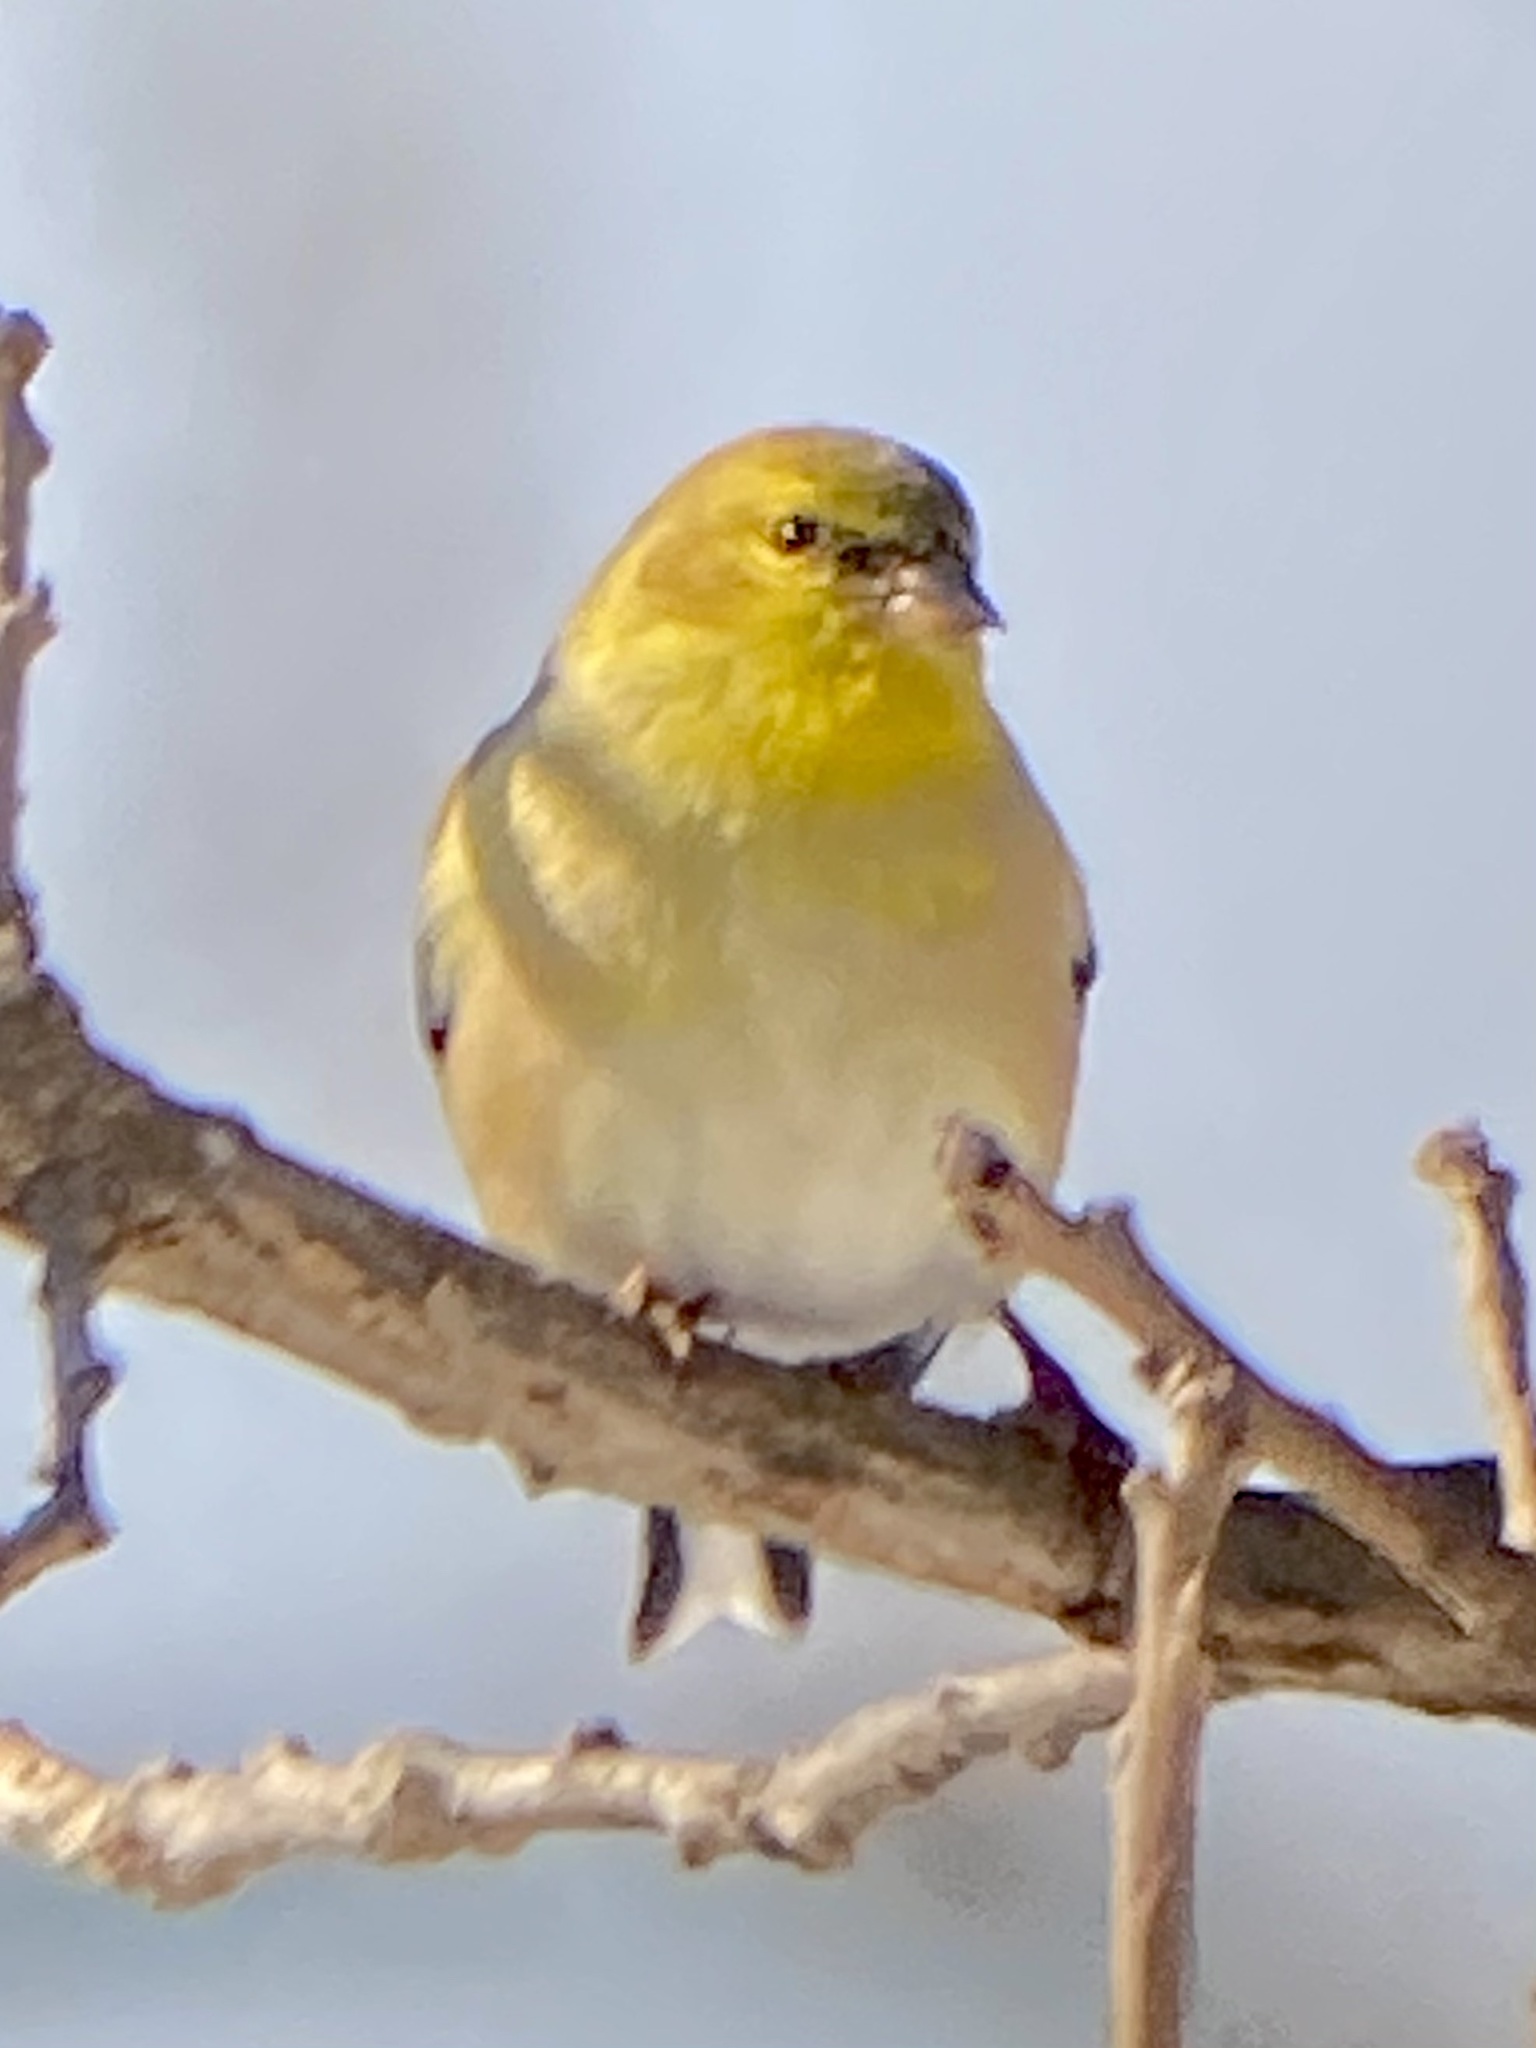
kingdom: Animalia
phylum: Chordata
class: Aves
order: Passeriformes
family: Fringillidae
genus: Spinus
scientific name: Spinus tristis
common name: American goldfinch
